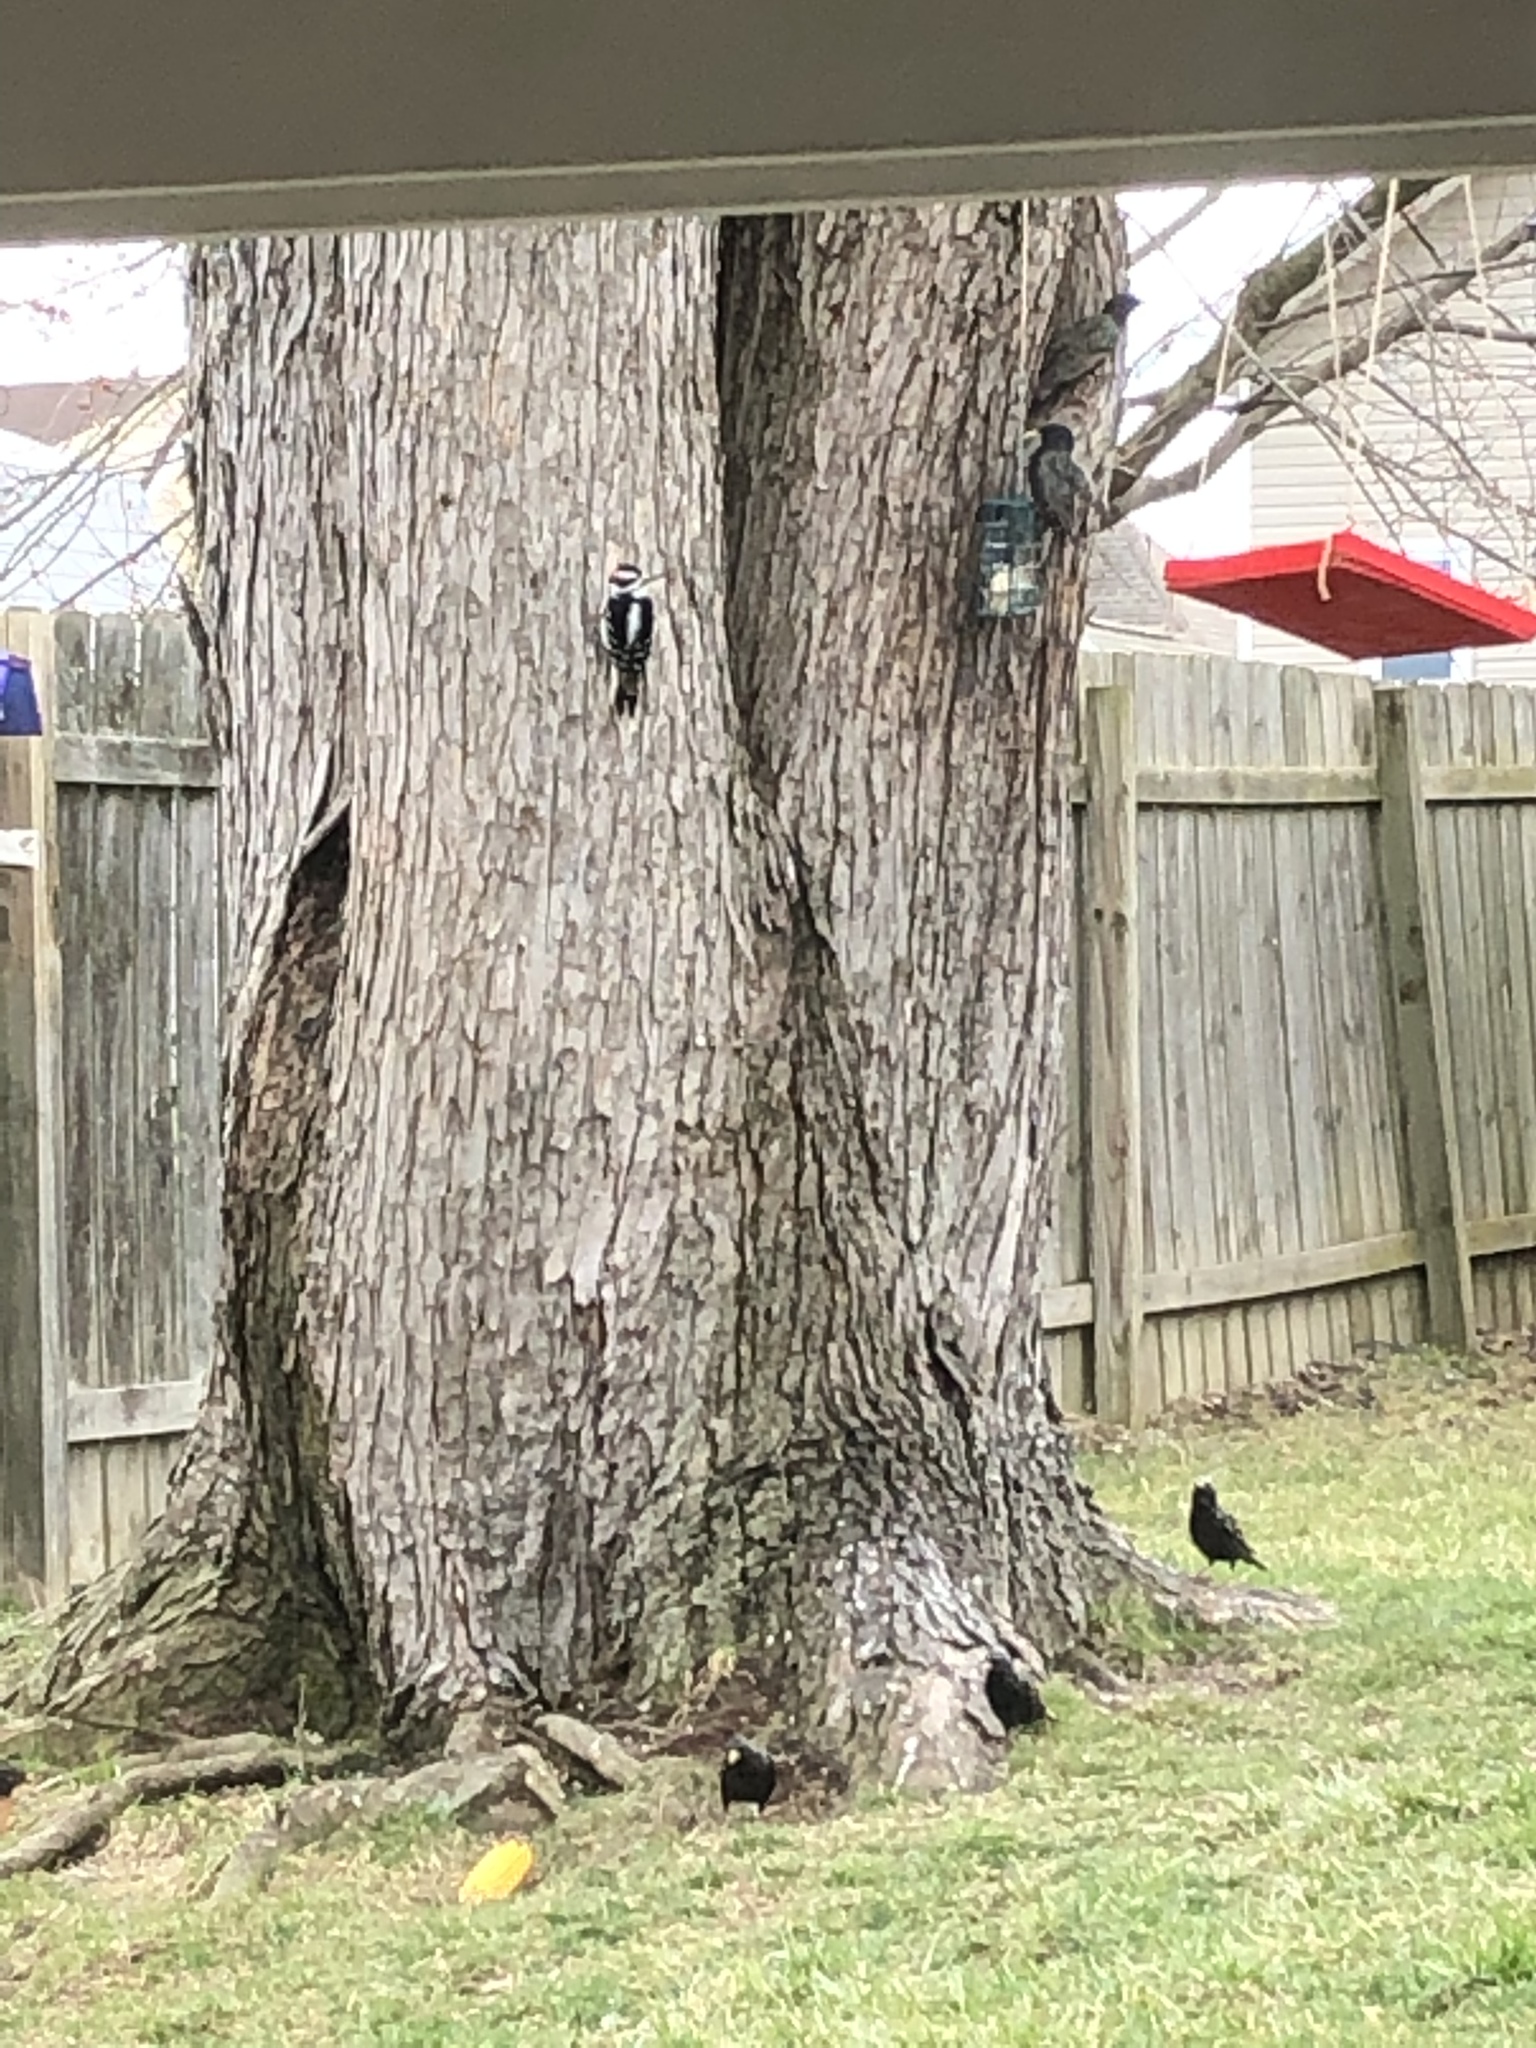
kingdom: Animalia
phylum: Chordata
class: Aves
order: Piciformes
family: Picidae
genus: Leuconotopicus
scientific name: Leuconotopicus villosus
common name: Hairy woodpecker
